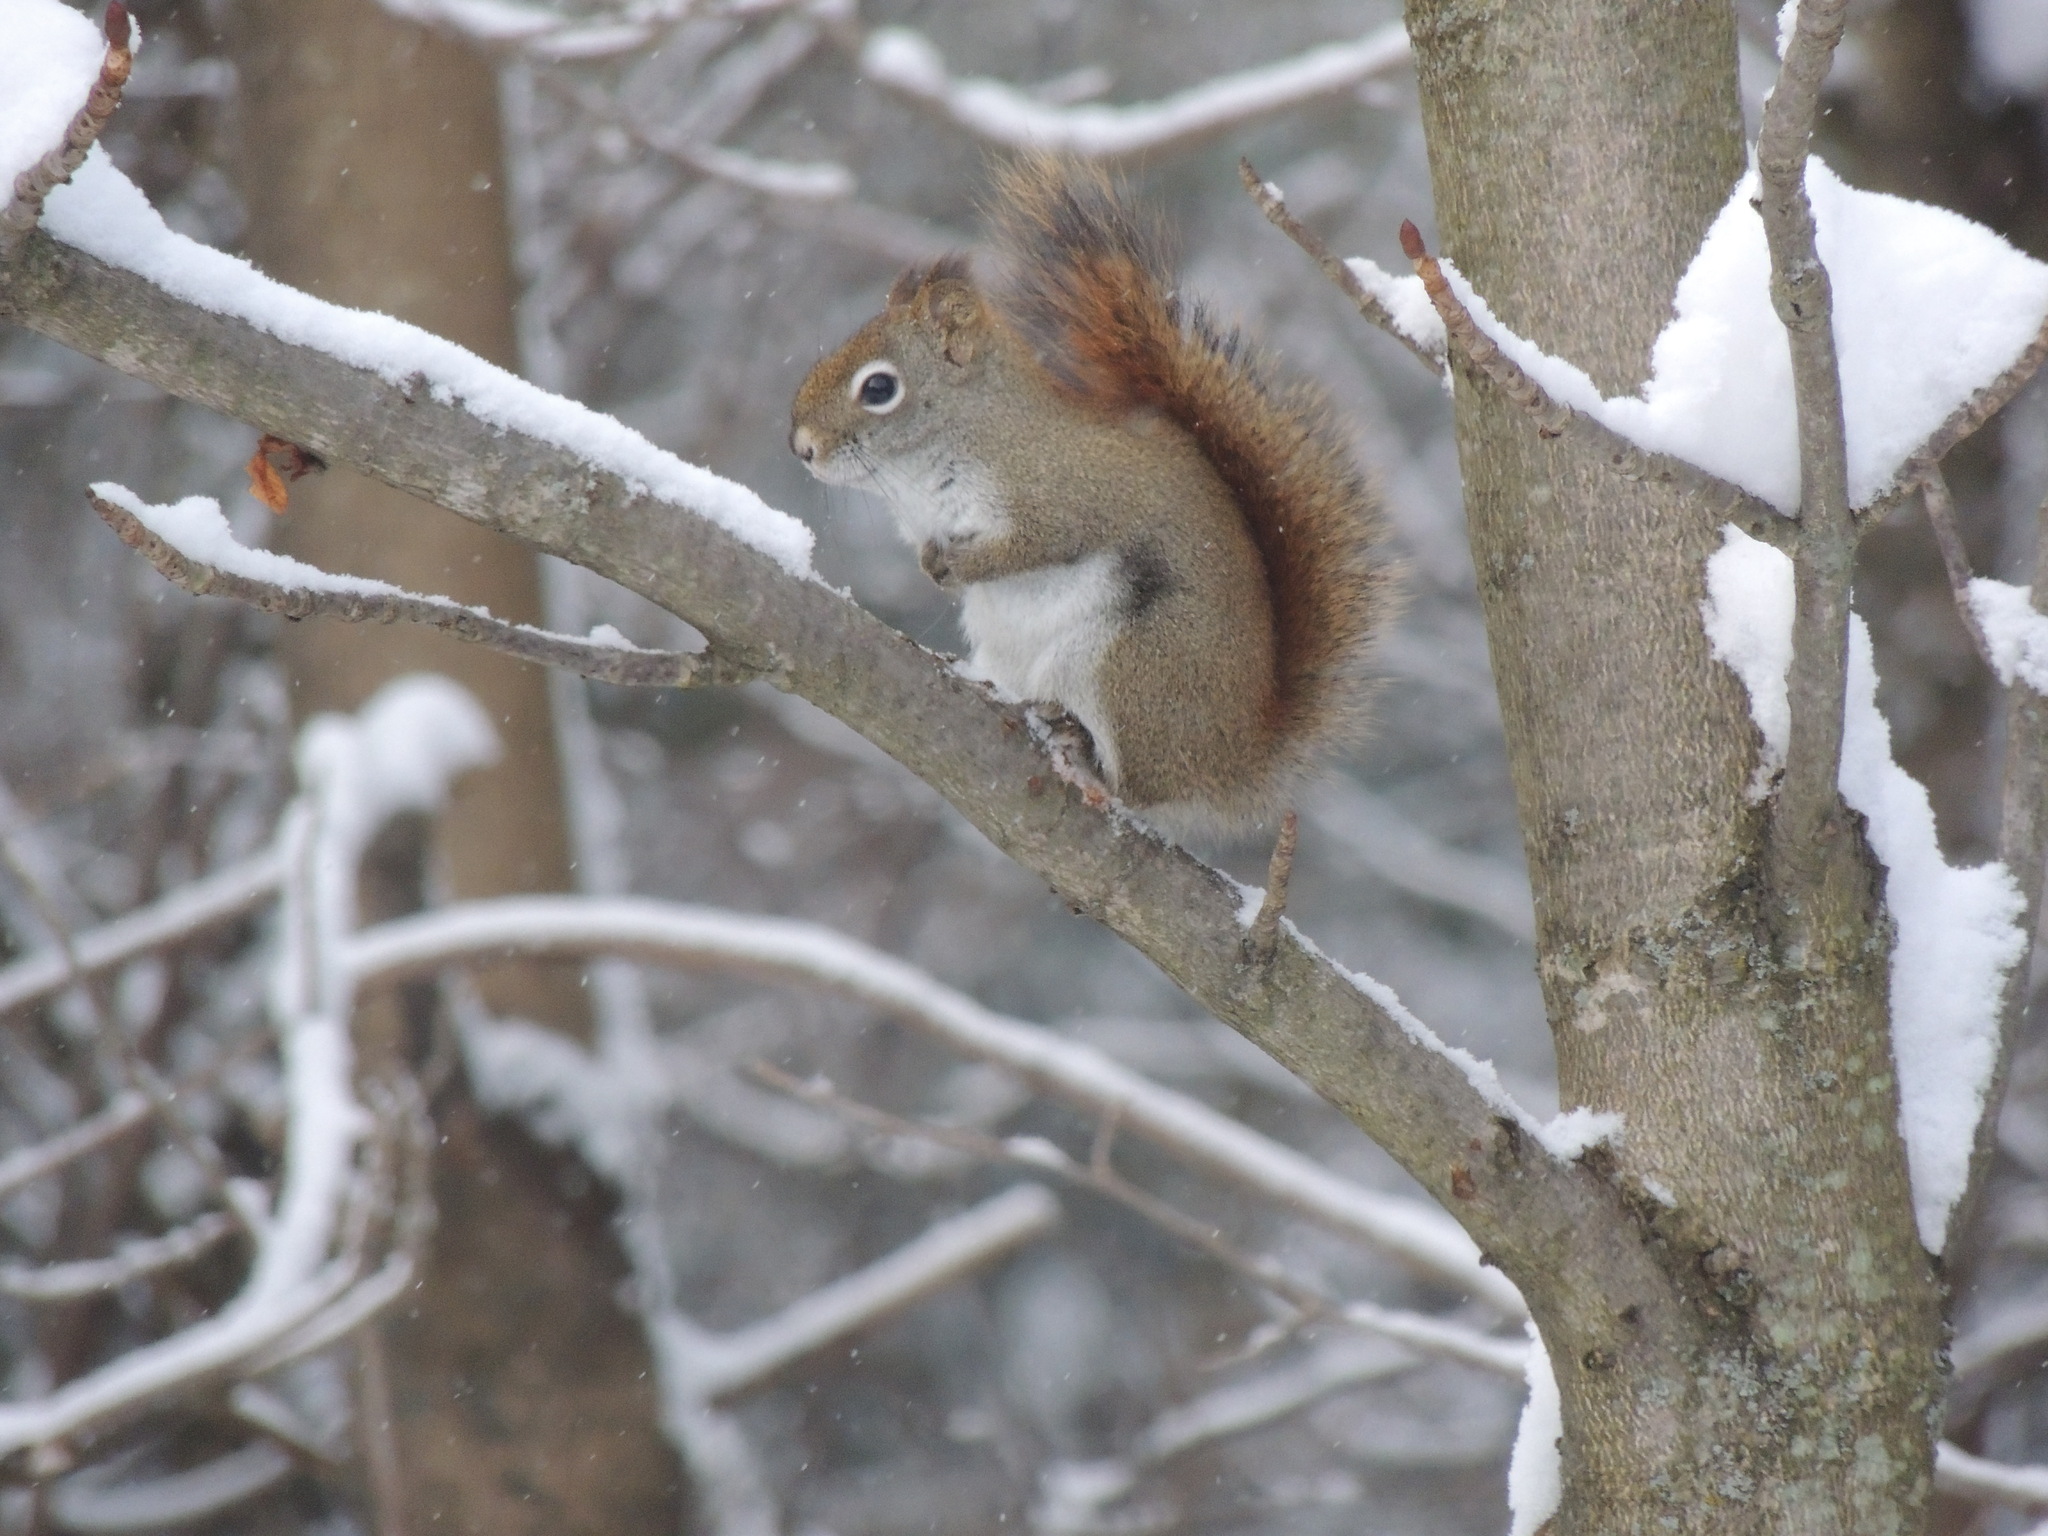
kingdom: Animalia
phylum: Chordata
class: Mammalia
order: Rodentia
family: Sciuridae
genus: Tamiasciurus
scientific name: Tamiasciurus hudsonicus
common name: Red squirrel
